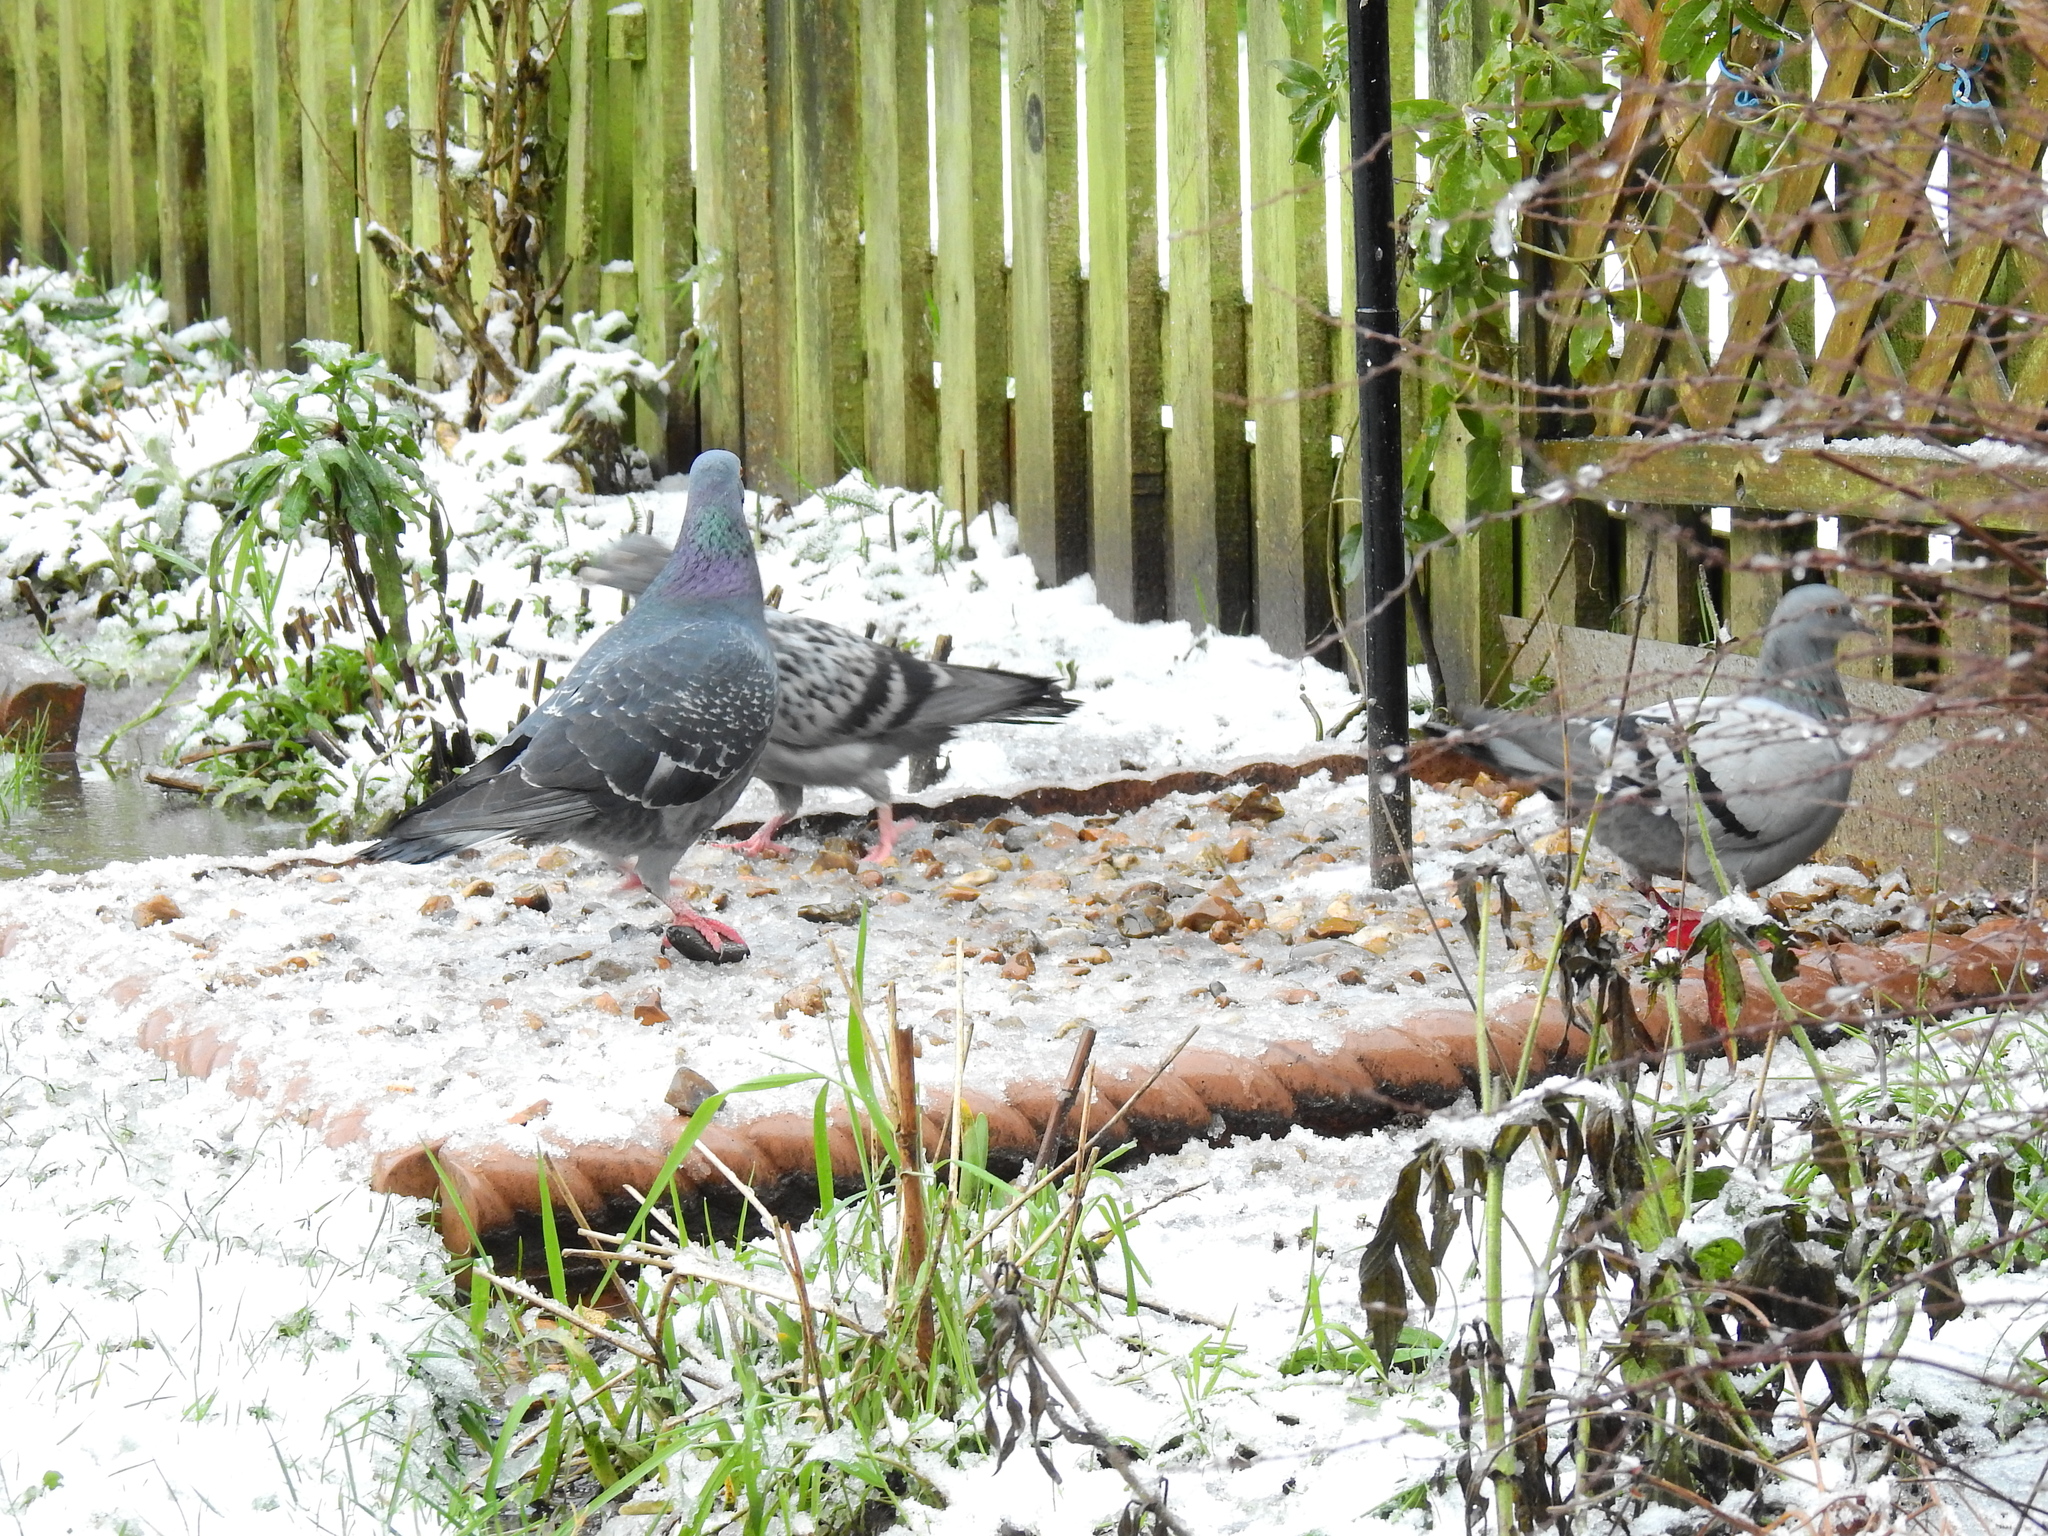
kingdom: Animalia
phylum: Chordata
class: Aves
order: Columbiformes
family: Columbidae
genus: Columba
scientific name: Columba livia
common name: Rock pigeon
